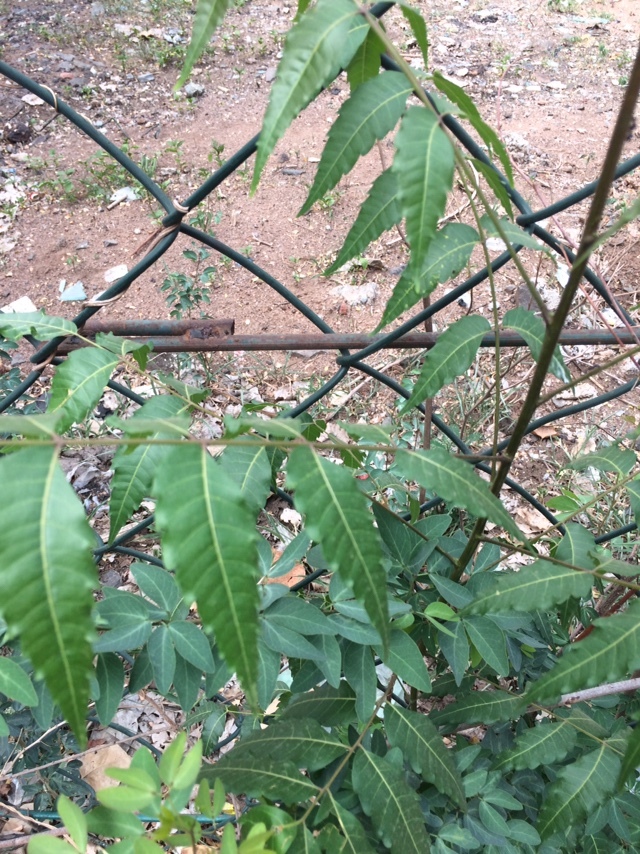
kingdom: Plantae
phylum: Tracheophyta
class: Magnoliopsida
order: Sapindales
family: Meliaceae
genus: Azadirachta
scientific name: Azadirachta indica
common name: Neem
